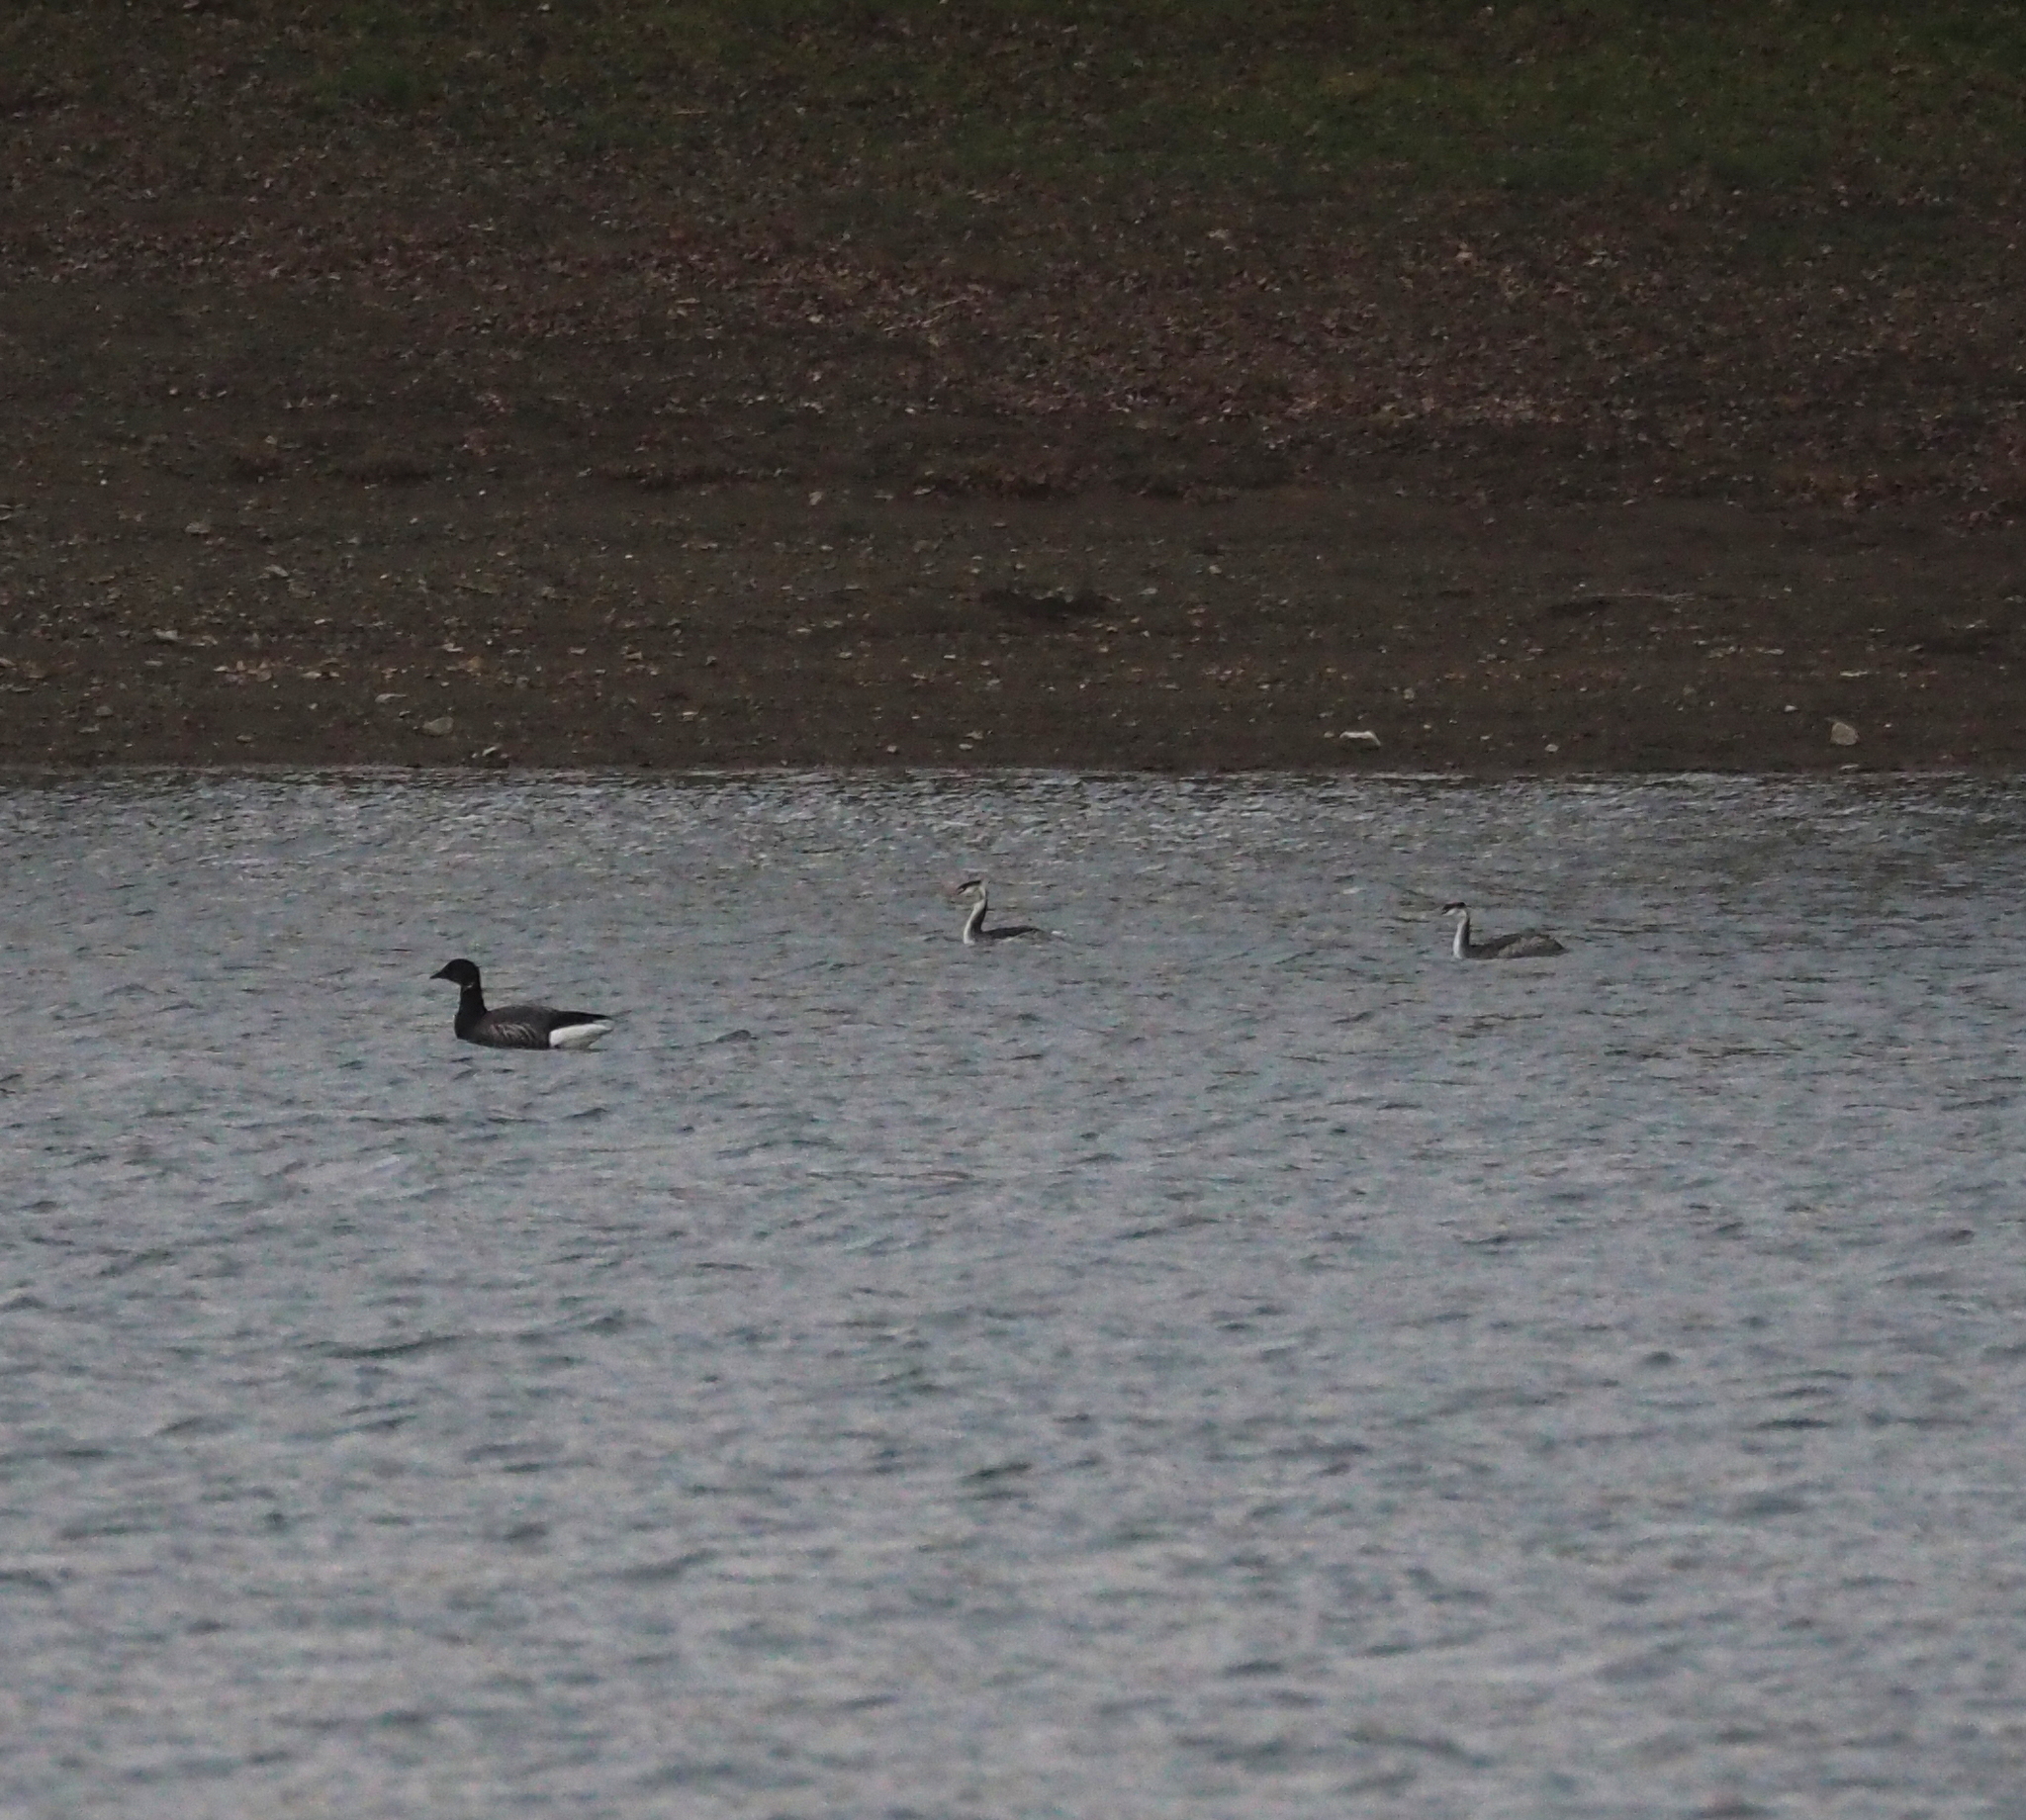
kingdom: Animalia
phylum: Chordata
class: Aves
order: Anseriformes
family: Anatidae
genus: Branta
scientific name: Branta bernicla
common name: Brant goose
